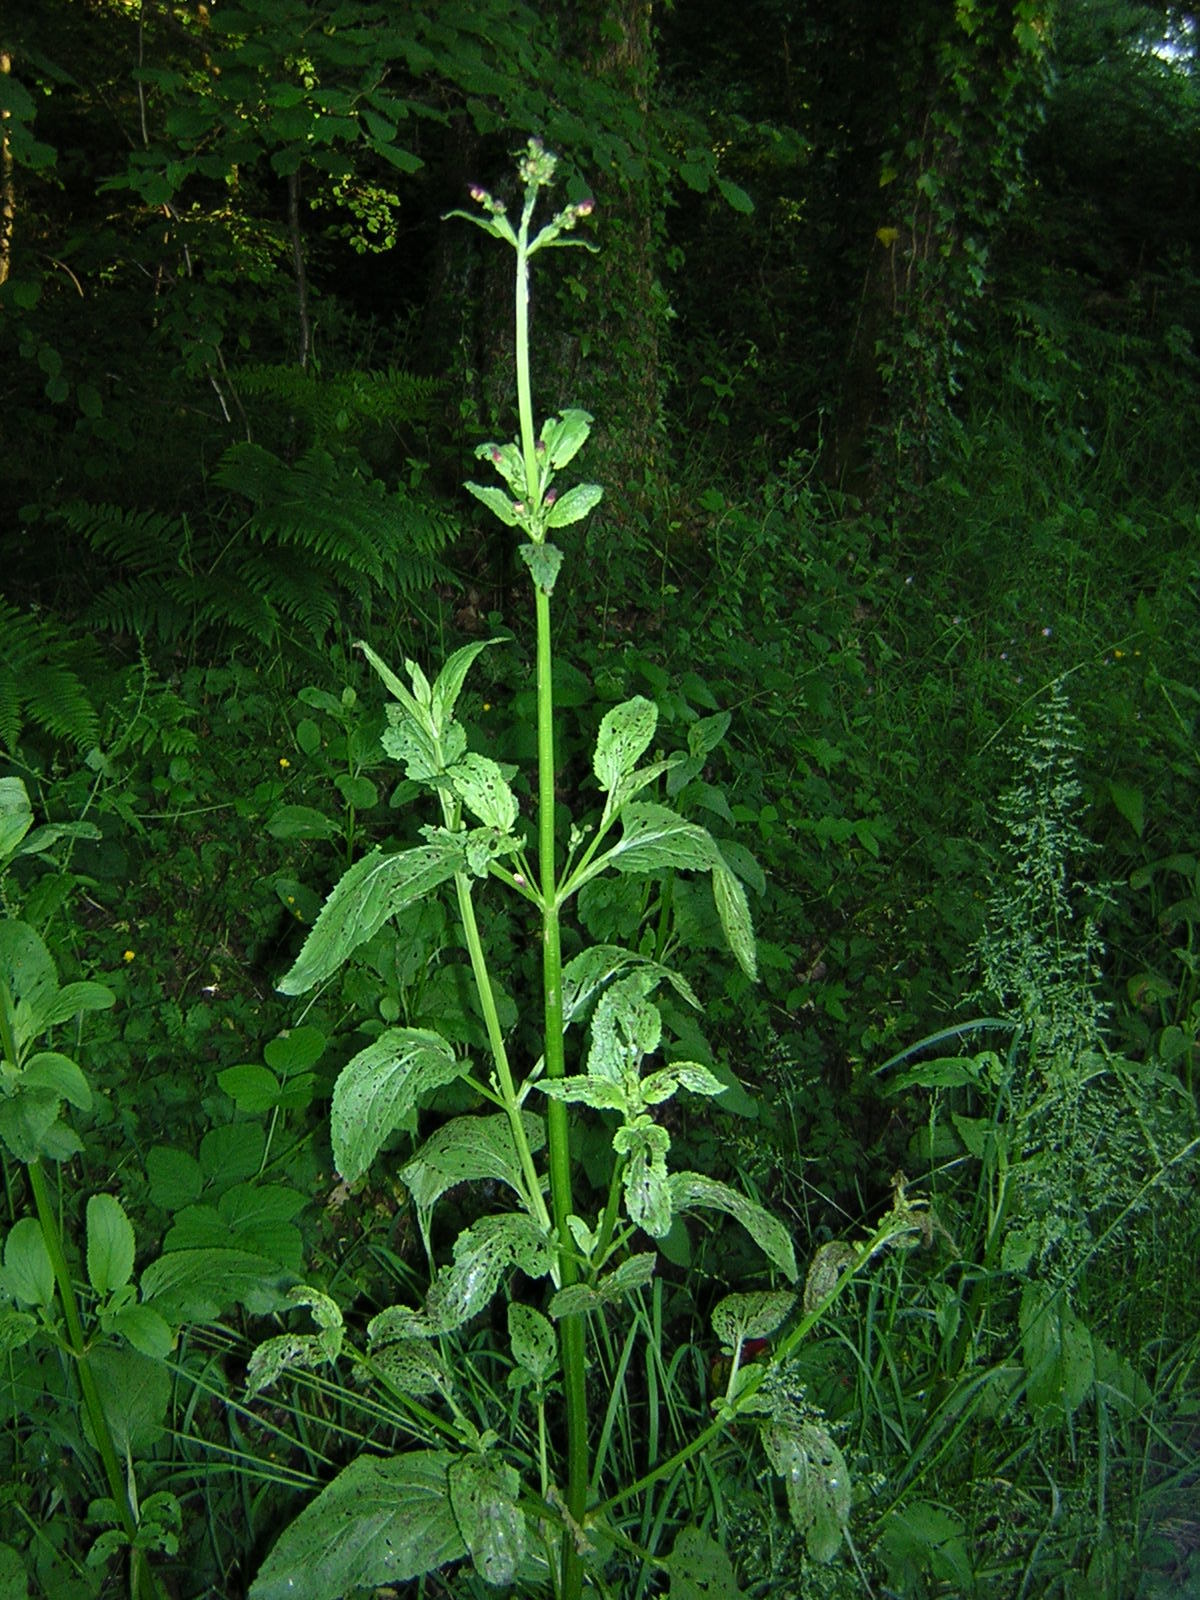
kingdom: Plantae
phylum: Tracheophyta
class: Magnoliopsida
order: Lamiales
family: Scrophulariaceae
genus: Scrophularia
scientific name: Scrophularia nodosa
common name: Common figwort
